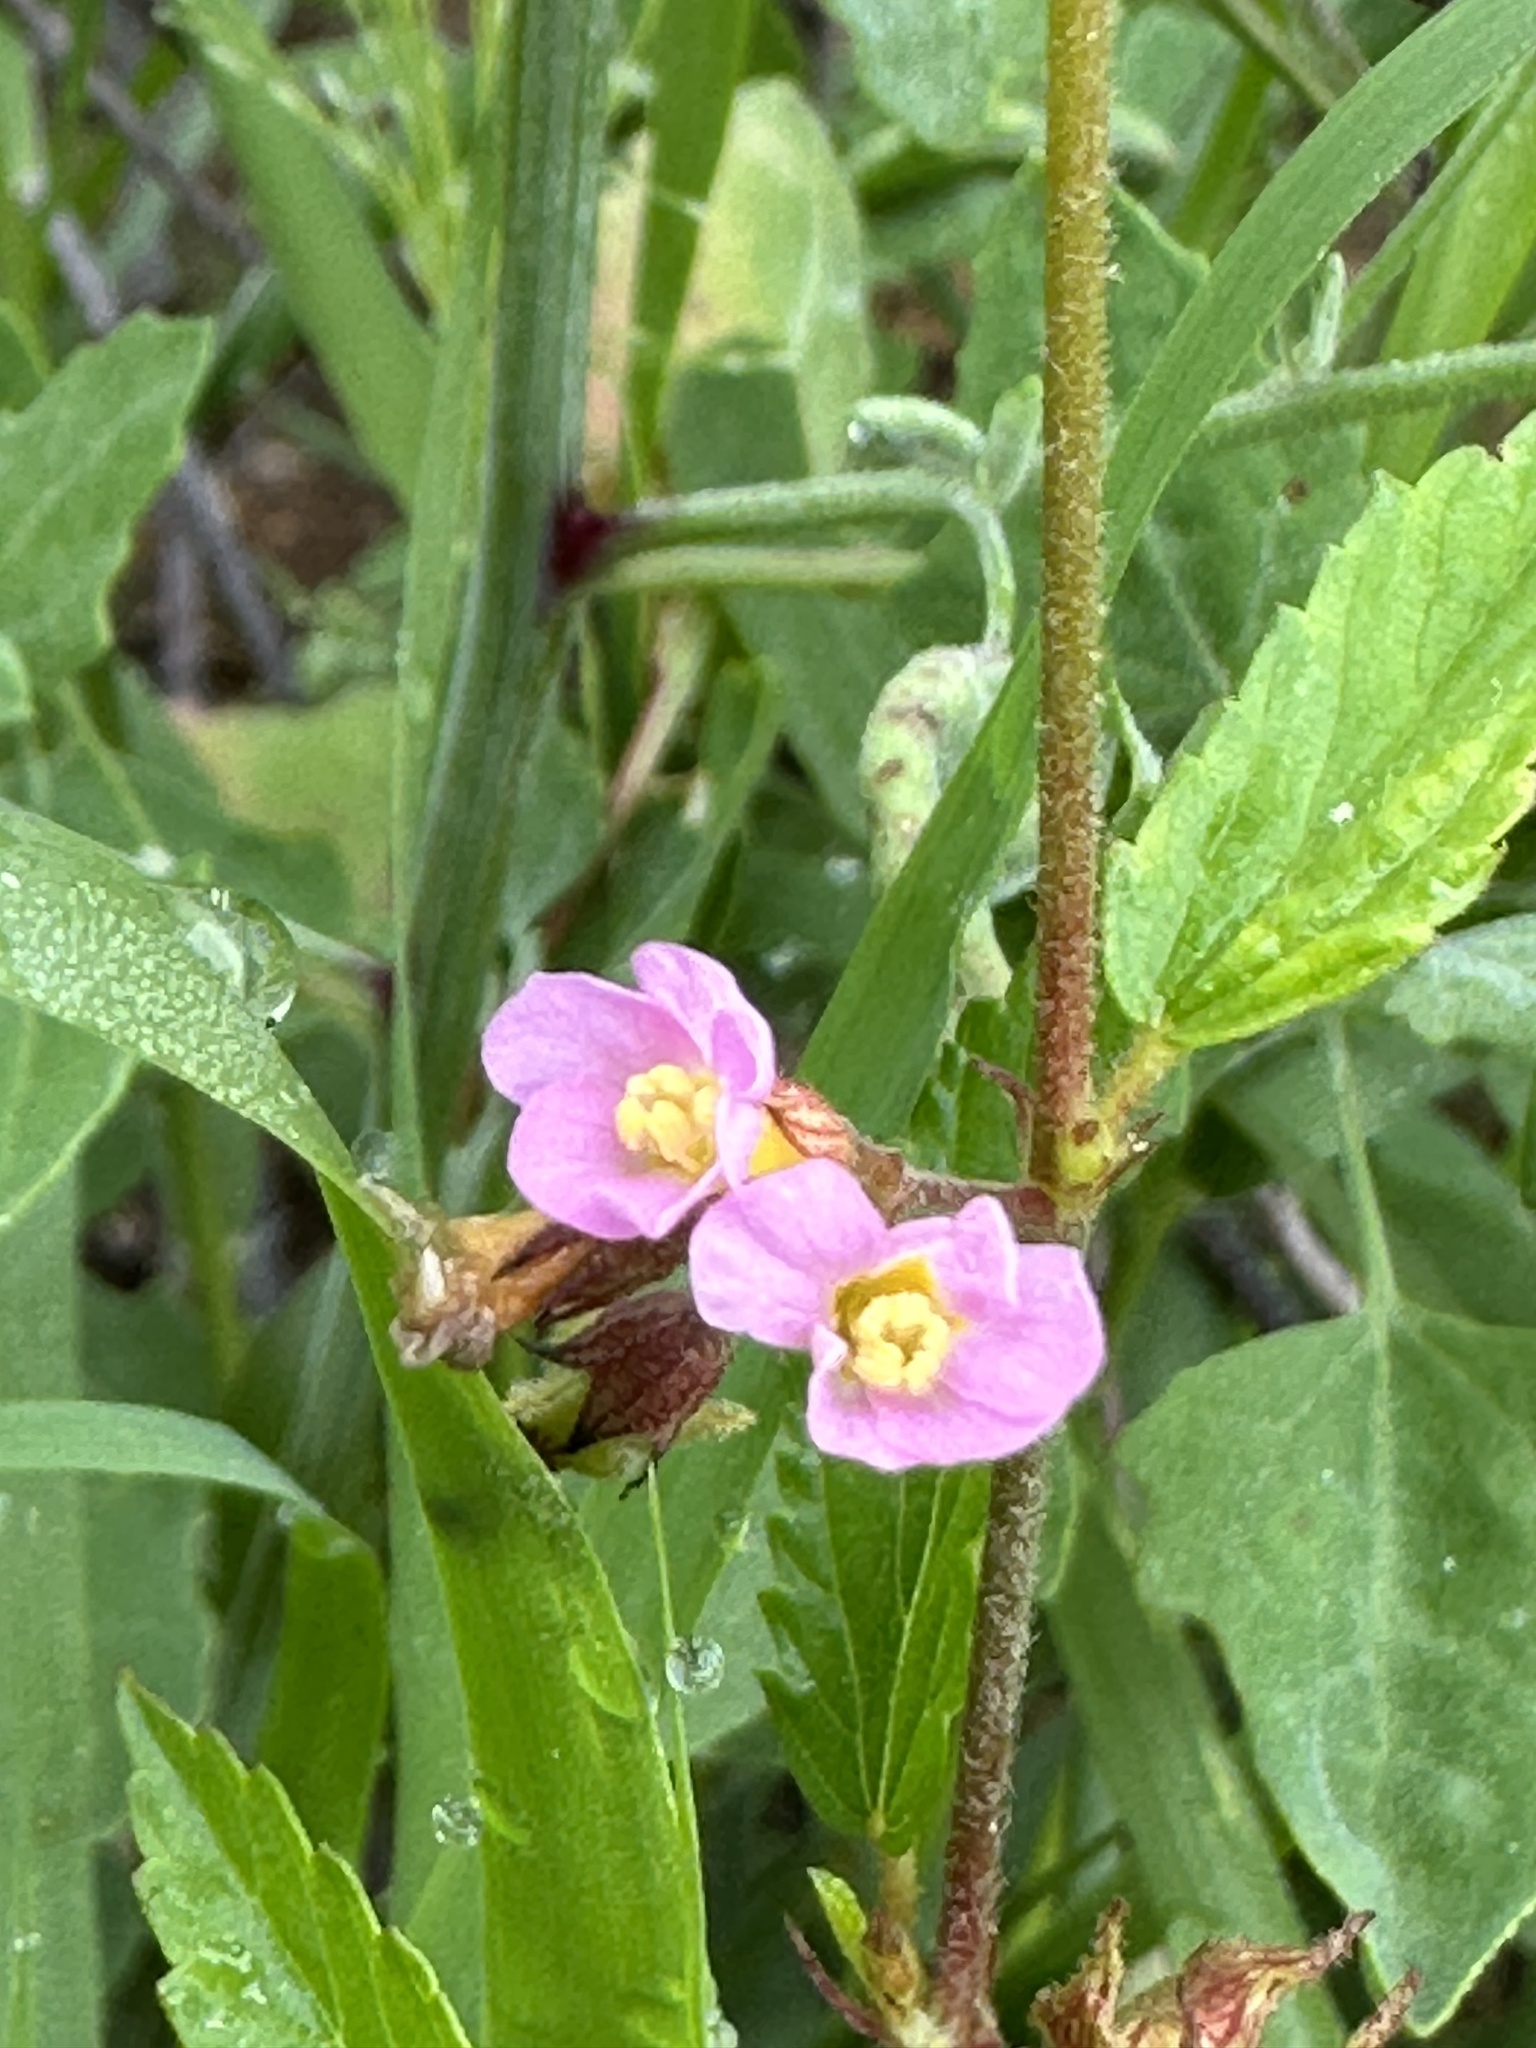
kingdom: Plantae
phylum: Tracheophyta
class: Magnoliopsida
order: Malvales
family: Malvaceae
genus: Melochia
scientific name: Melochia pyramidata
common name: Pyramidflower
